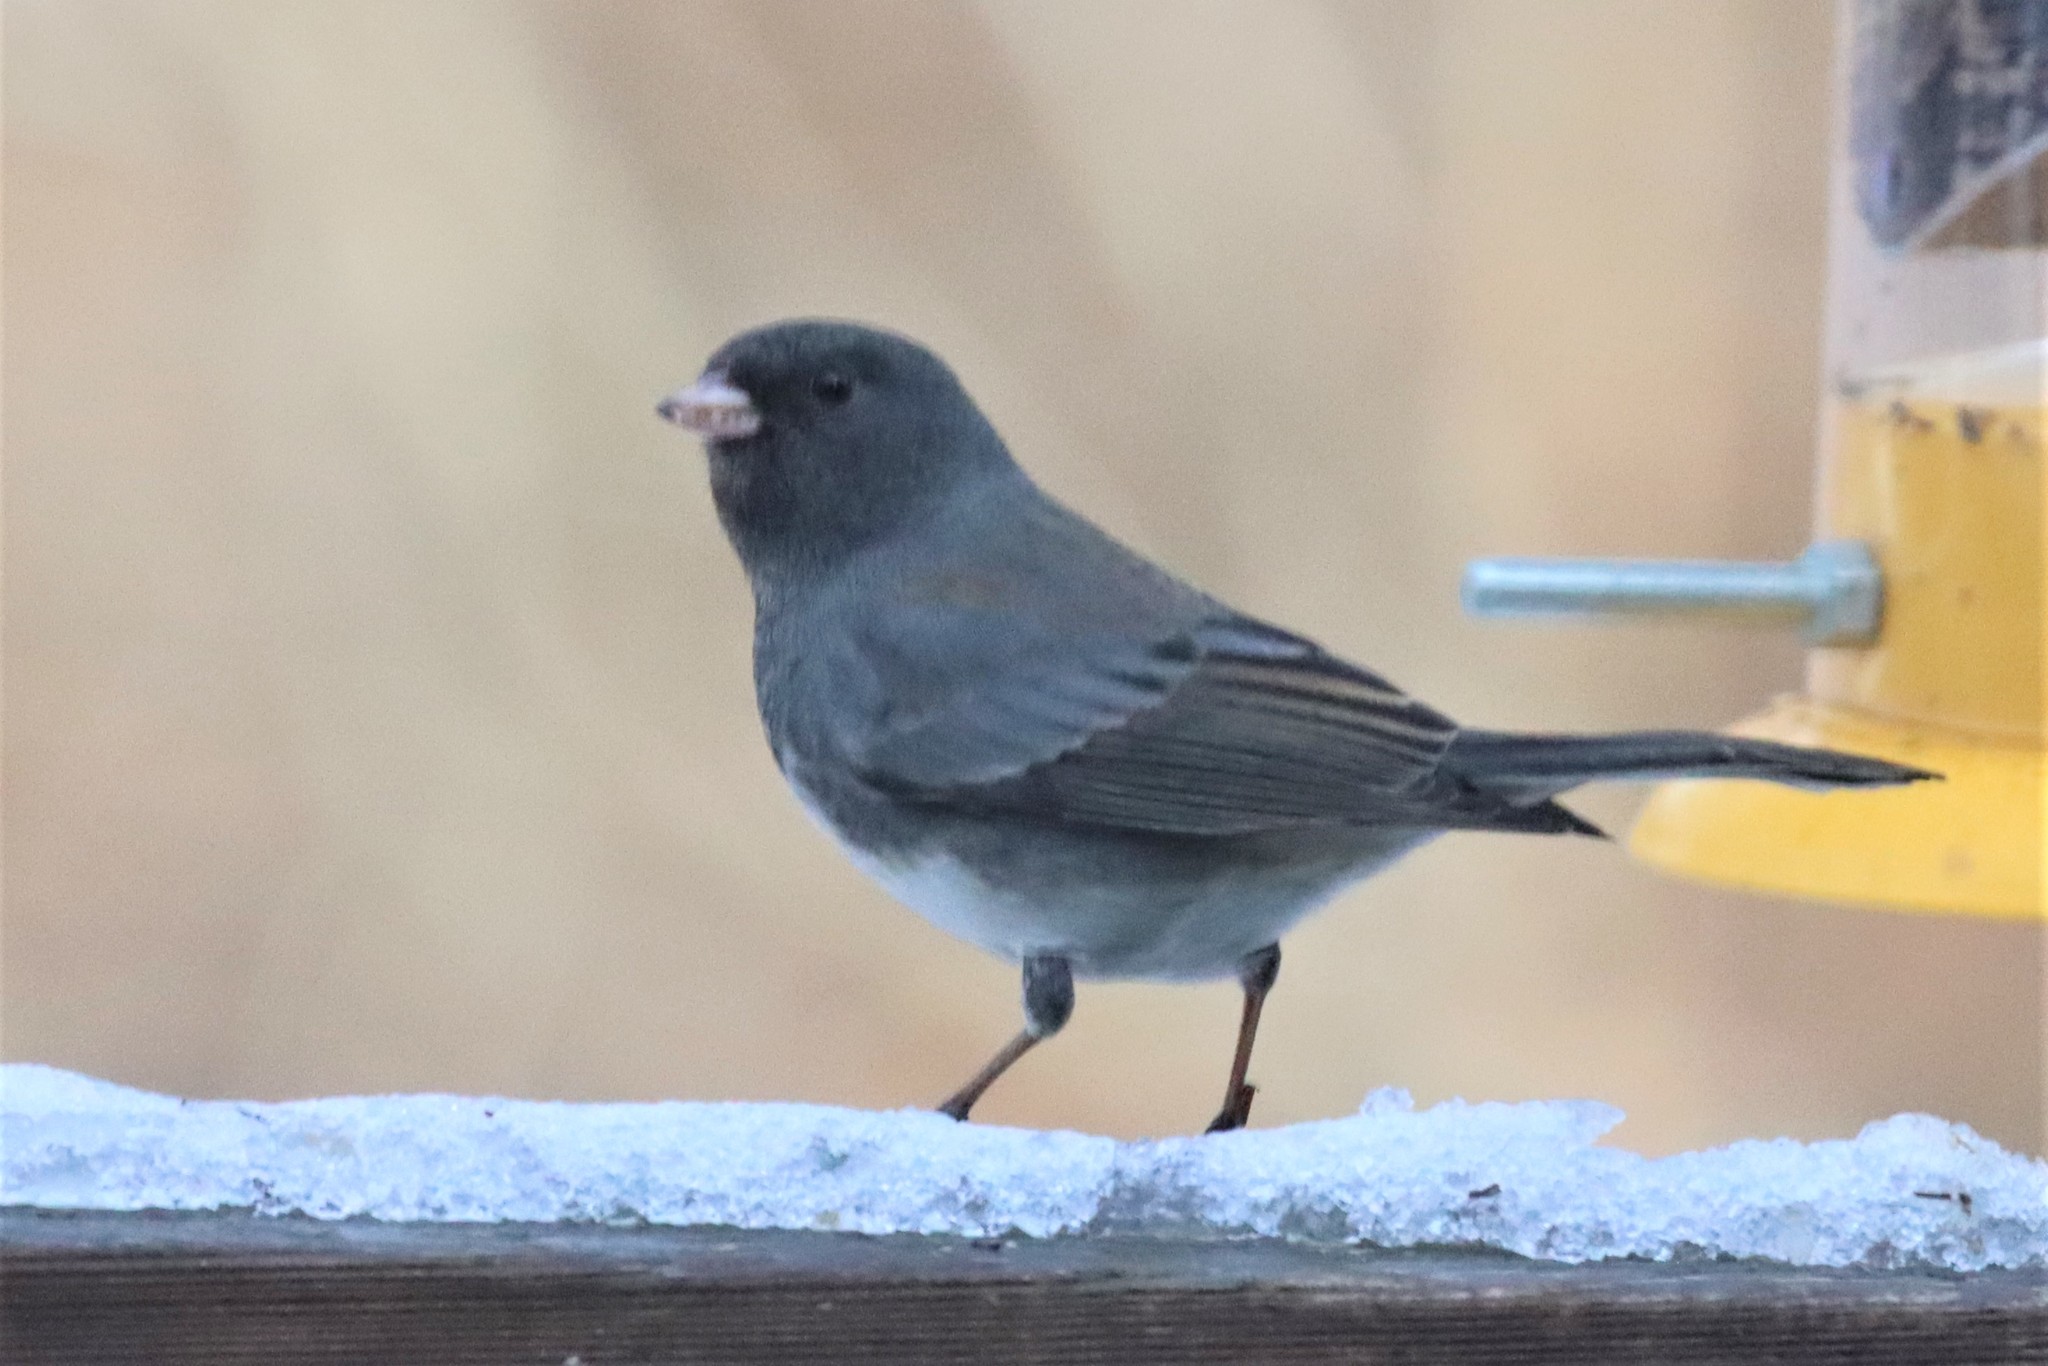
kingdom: Animalia
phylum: Chordata
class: Aves
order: Passeriformes
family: Passerellidae
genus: Junco
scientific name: Junco hyemalis
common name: Dark-eyed junco
